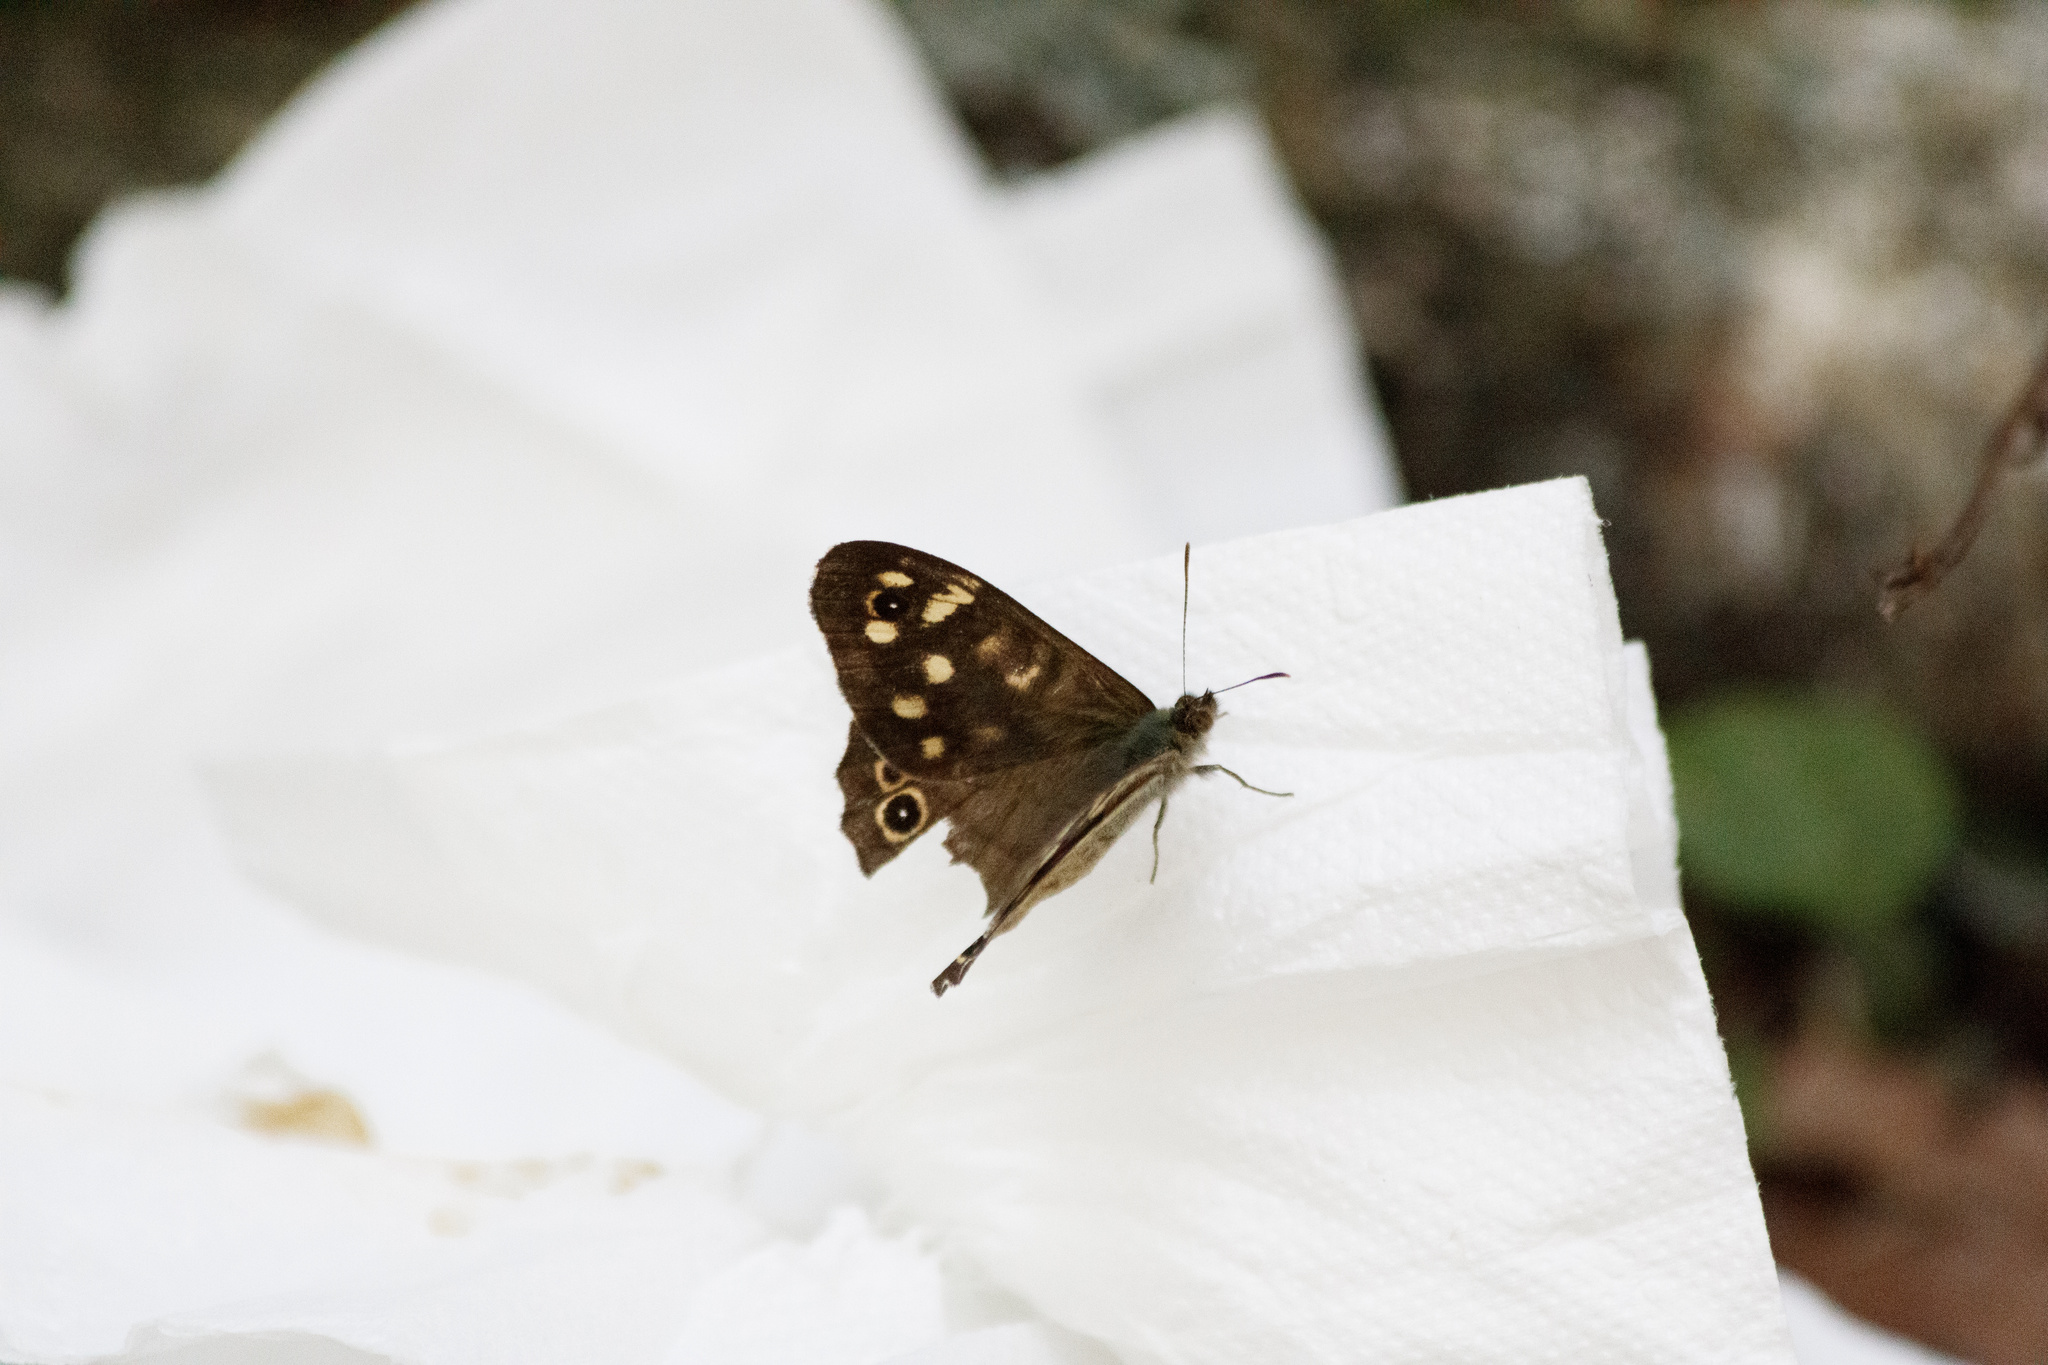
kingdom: Animalia
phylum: Arthropoda
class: Insecta
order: Lepidoptera
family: Nymphalidae
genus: Pararge
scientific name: Pararge aegeria
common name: Speckled wood
